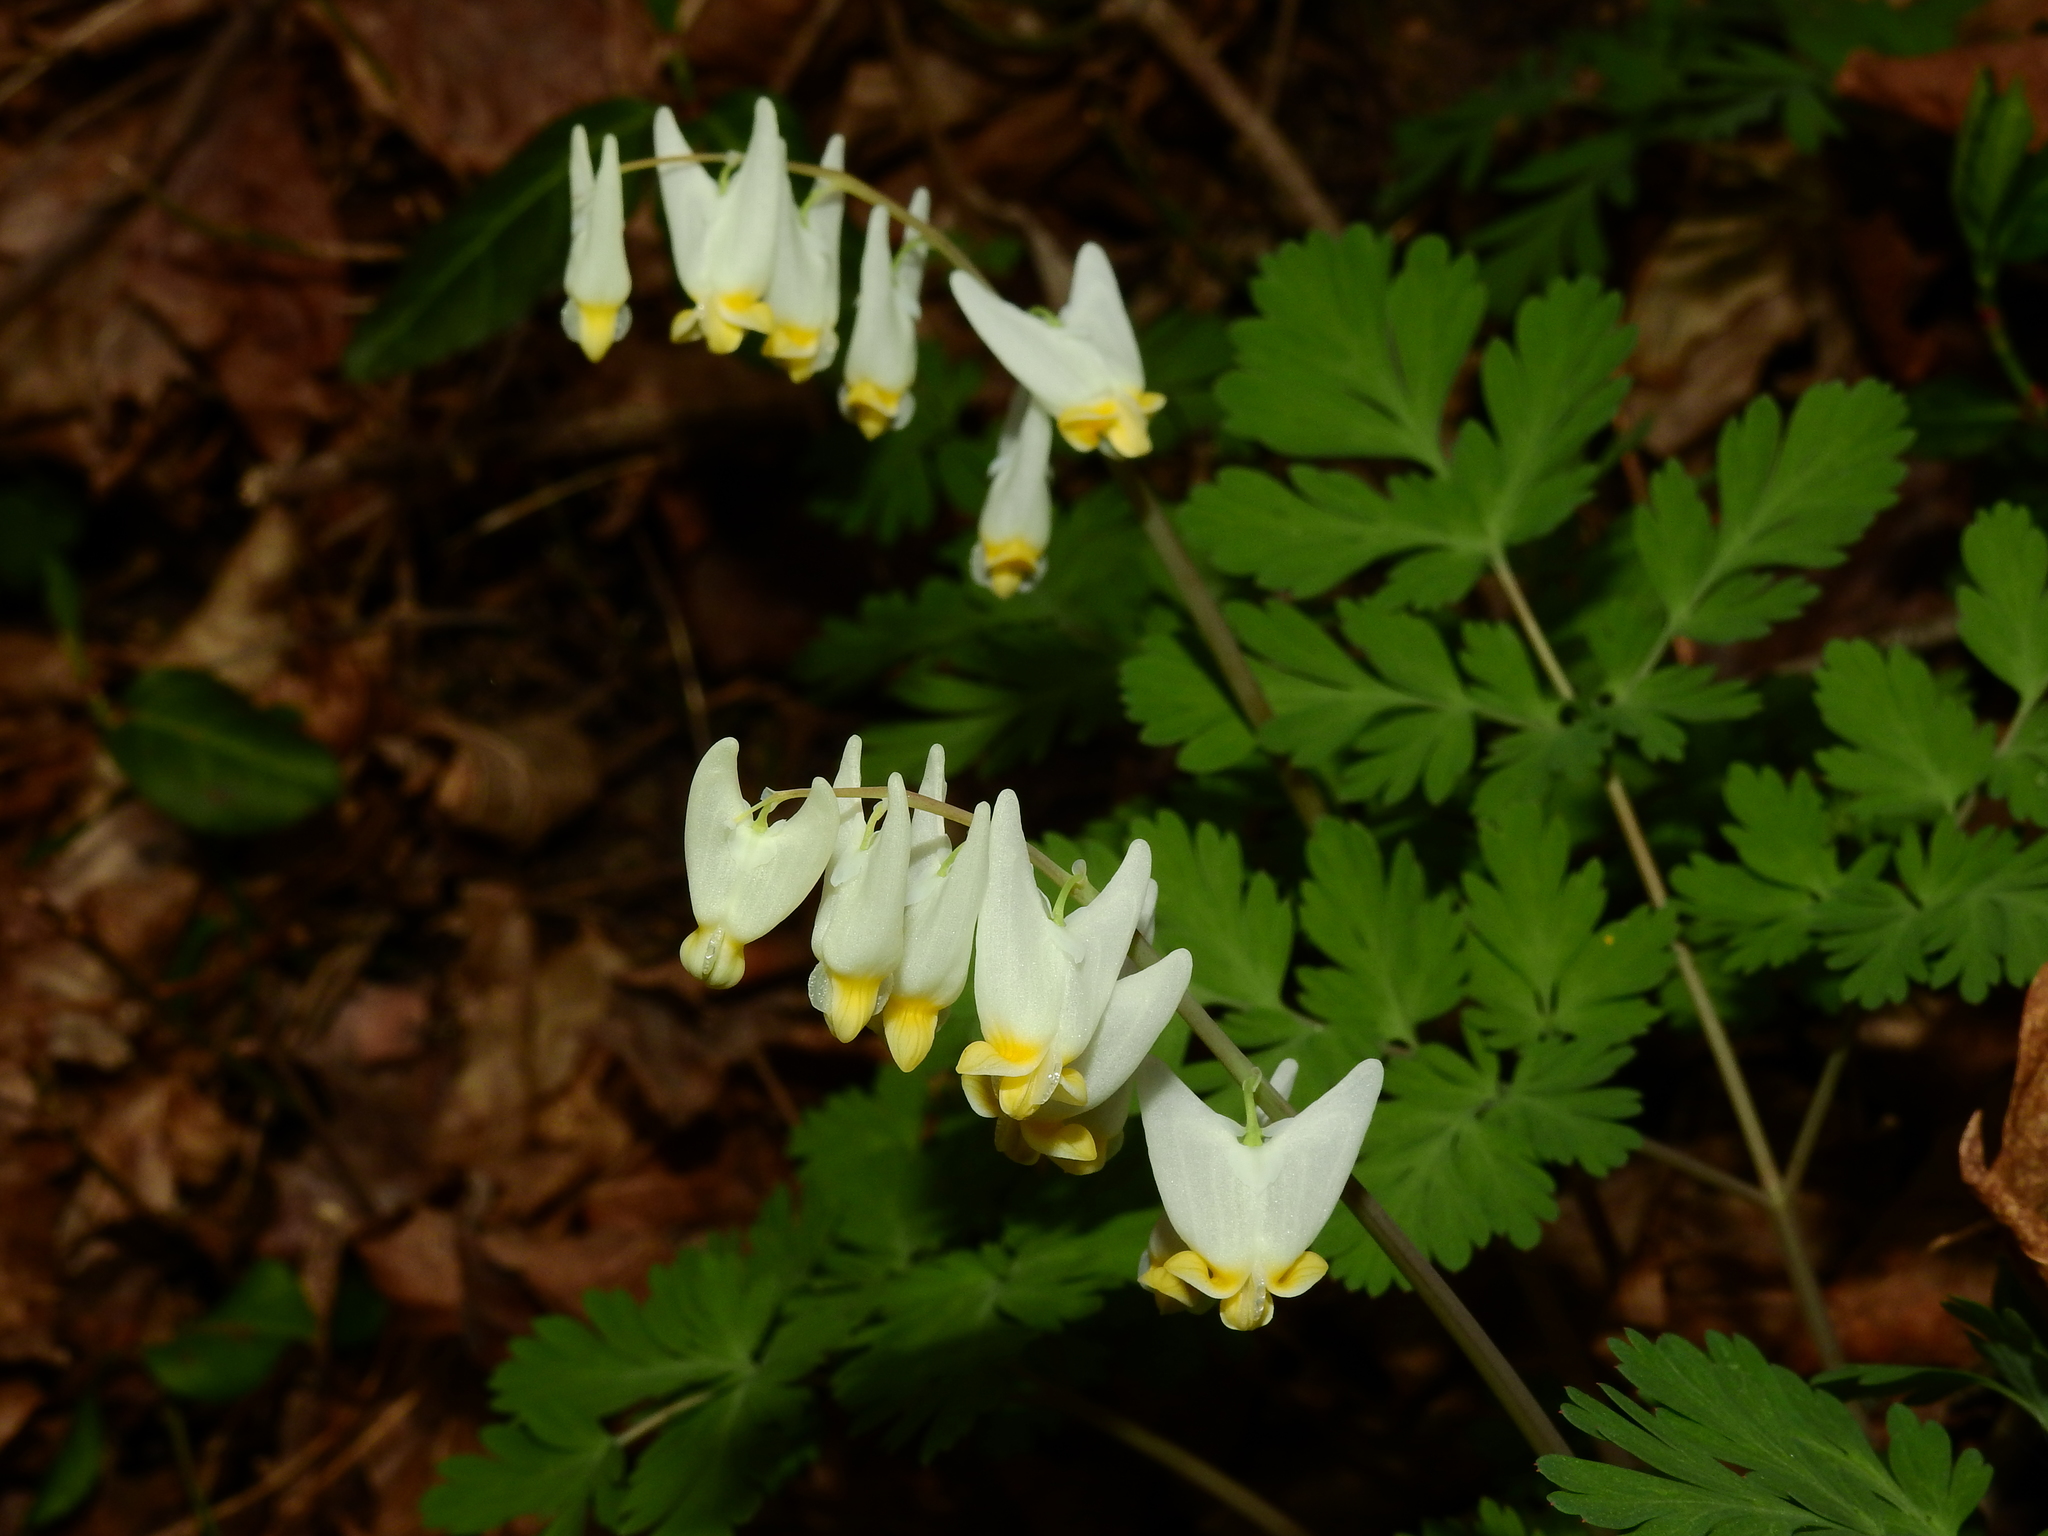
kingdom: Plantae
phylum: Tracheophyta
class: Magnoliopsida
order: Ranunculales
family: Papaveraceae
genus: Dicentra
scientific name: Dicentra cucullaria
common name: Dutchman's breeches
